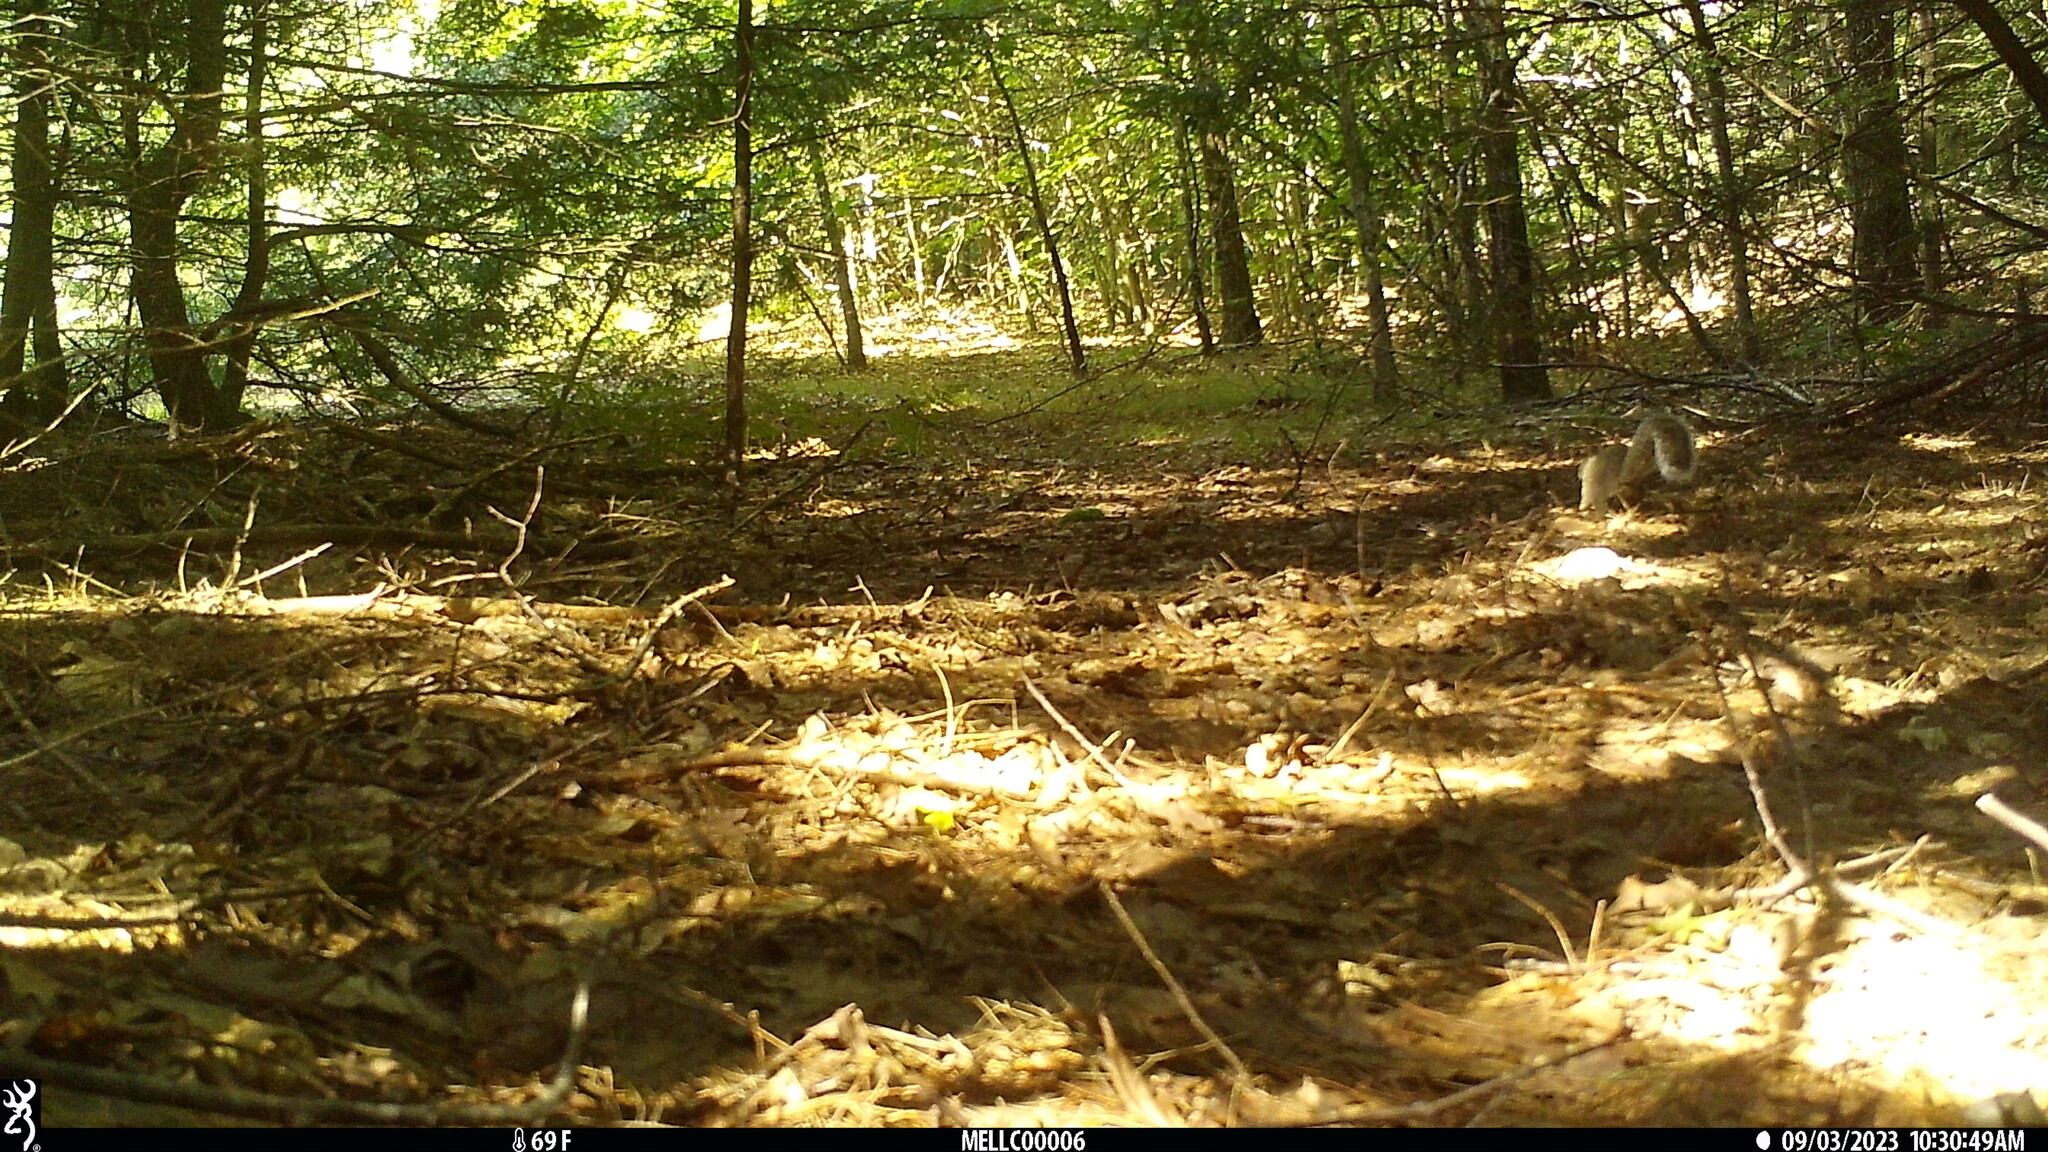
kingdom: Animalia
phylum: Chordata
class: Mammalia
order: Rodentia
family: Sciuridae
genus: Sciurus
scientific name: Sciurus carolinensis
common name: Eastern gray squirrel
